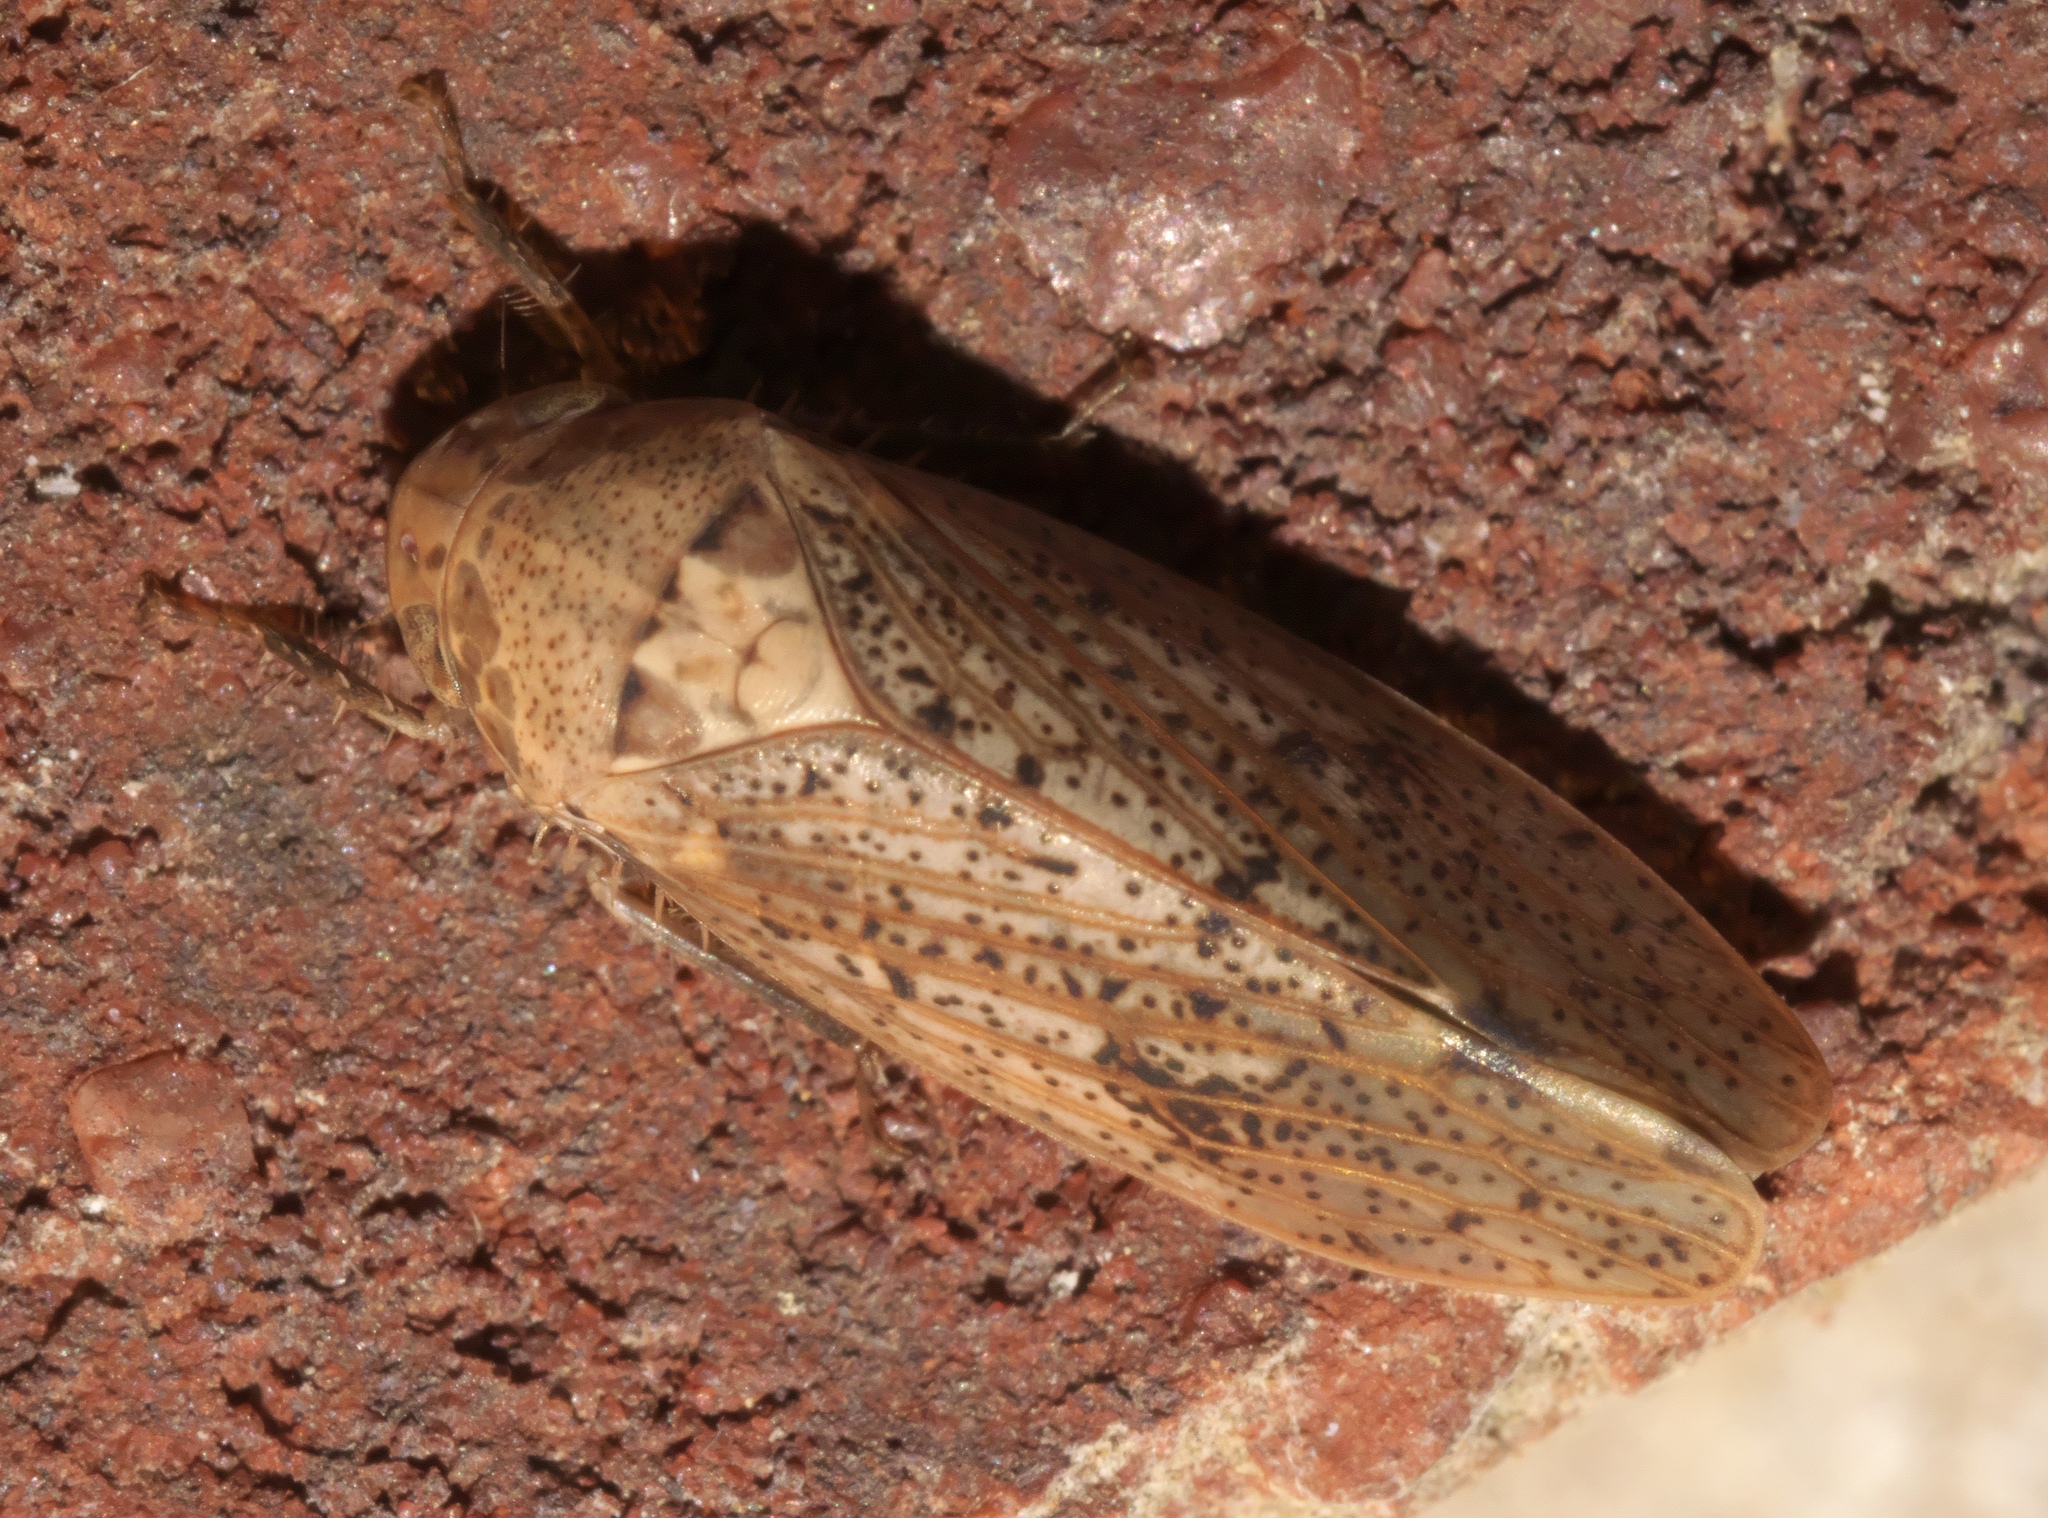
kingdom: Animalia
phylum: Arthropoda
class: Insecta
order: Hemiptera
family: Cicadellidae
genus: Ponana
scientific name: Ponana puncticollis
